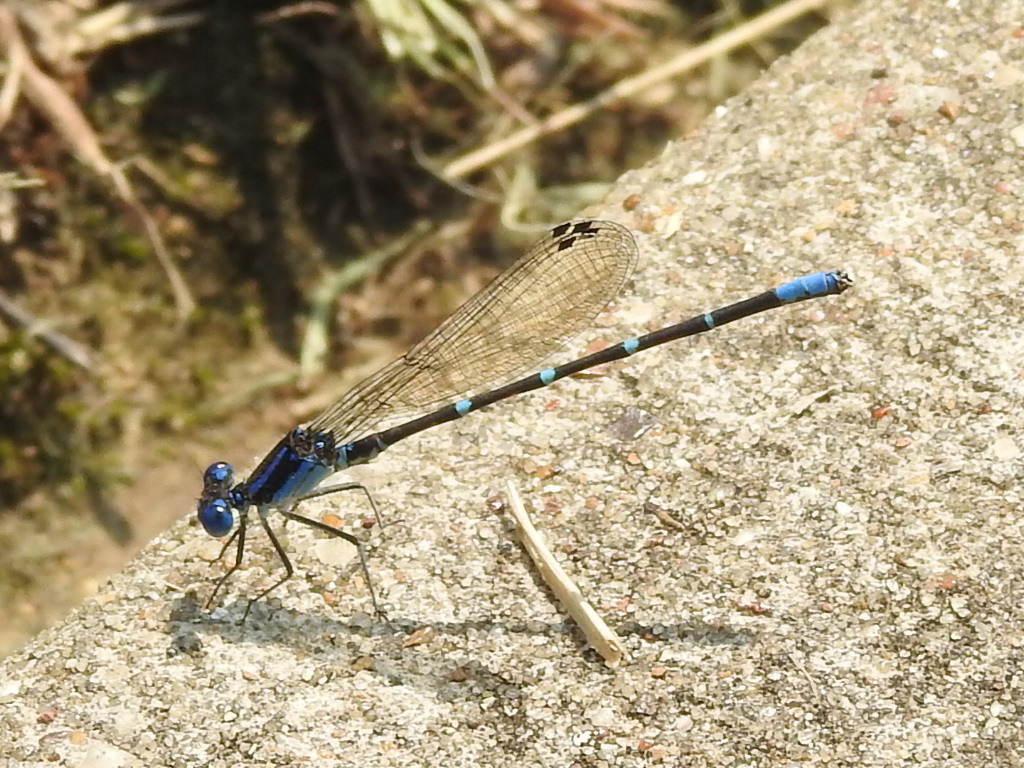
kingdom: Animalia
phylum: Arthropoda
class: Insecta
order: Odonata
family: Coenagrionidae
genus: Argia
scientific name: Argia sedula
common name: Blue-ringed dancer
